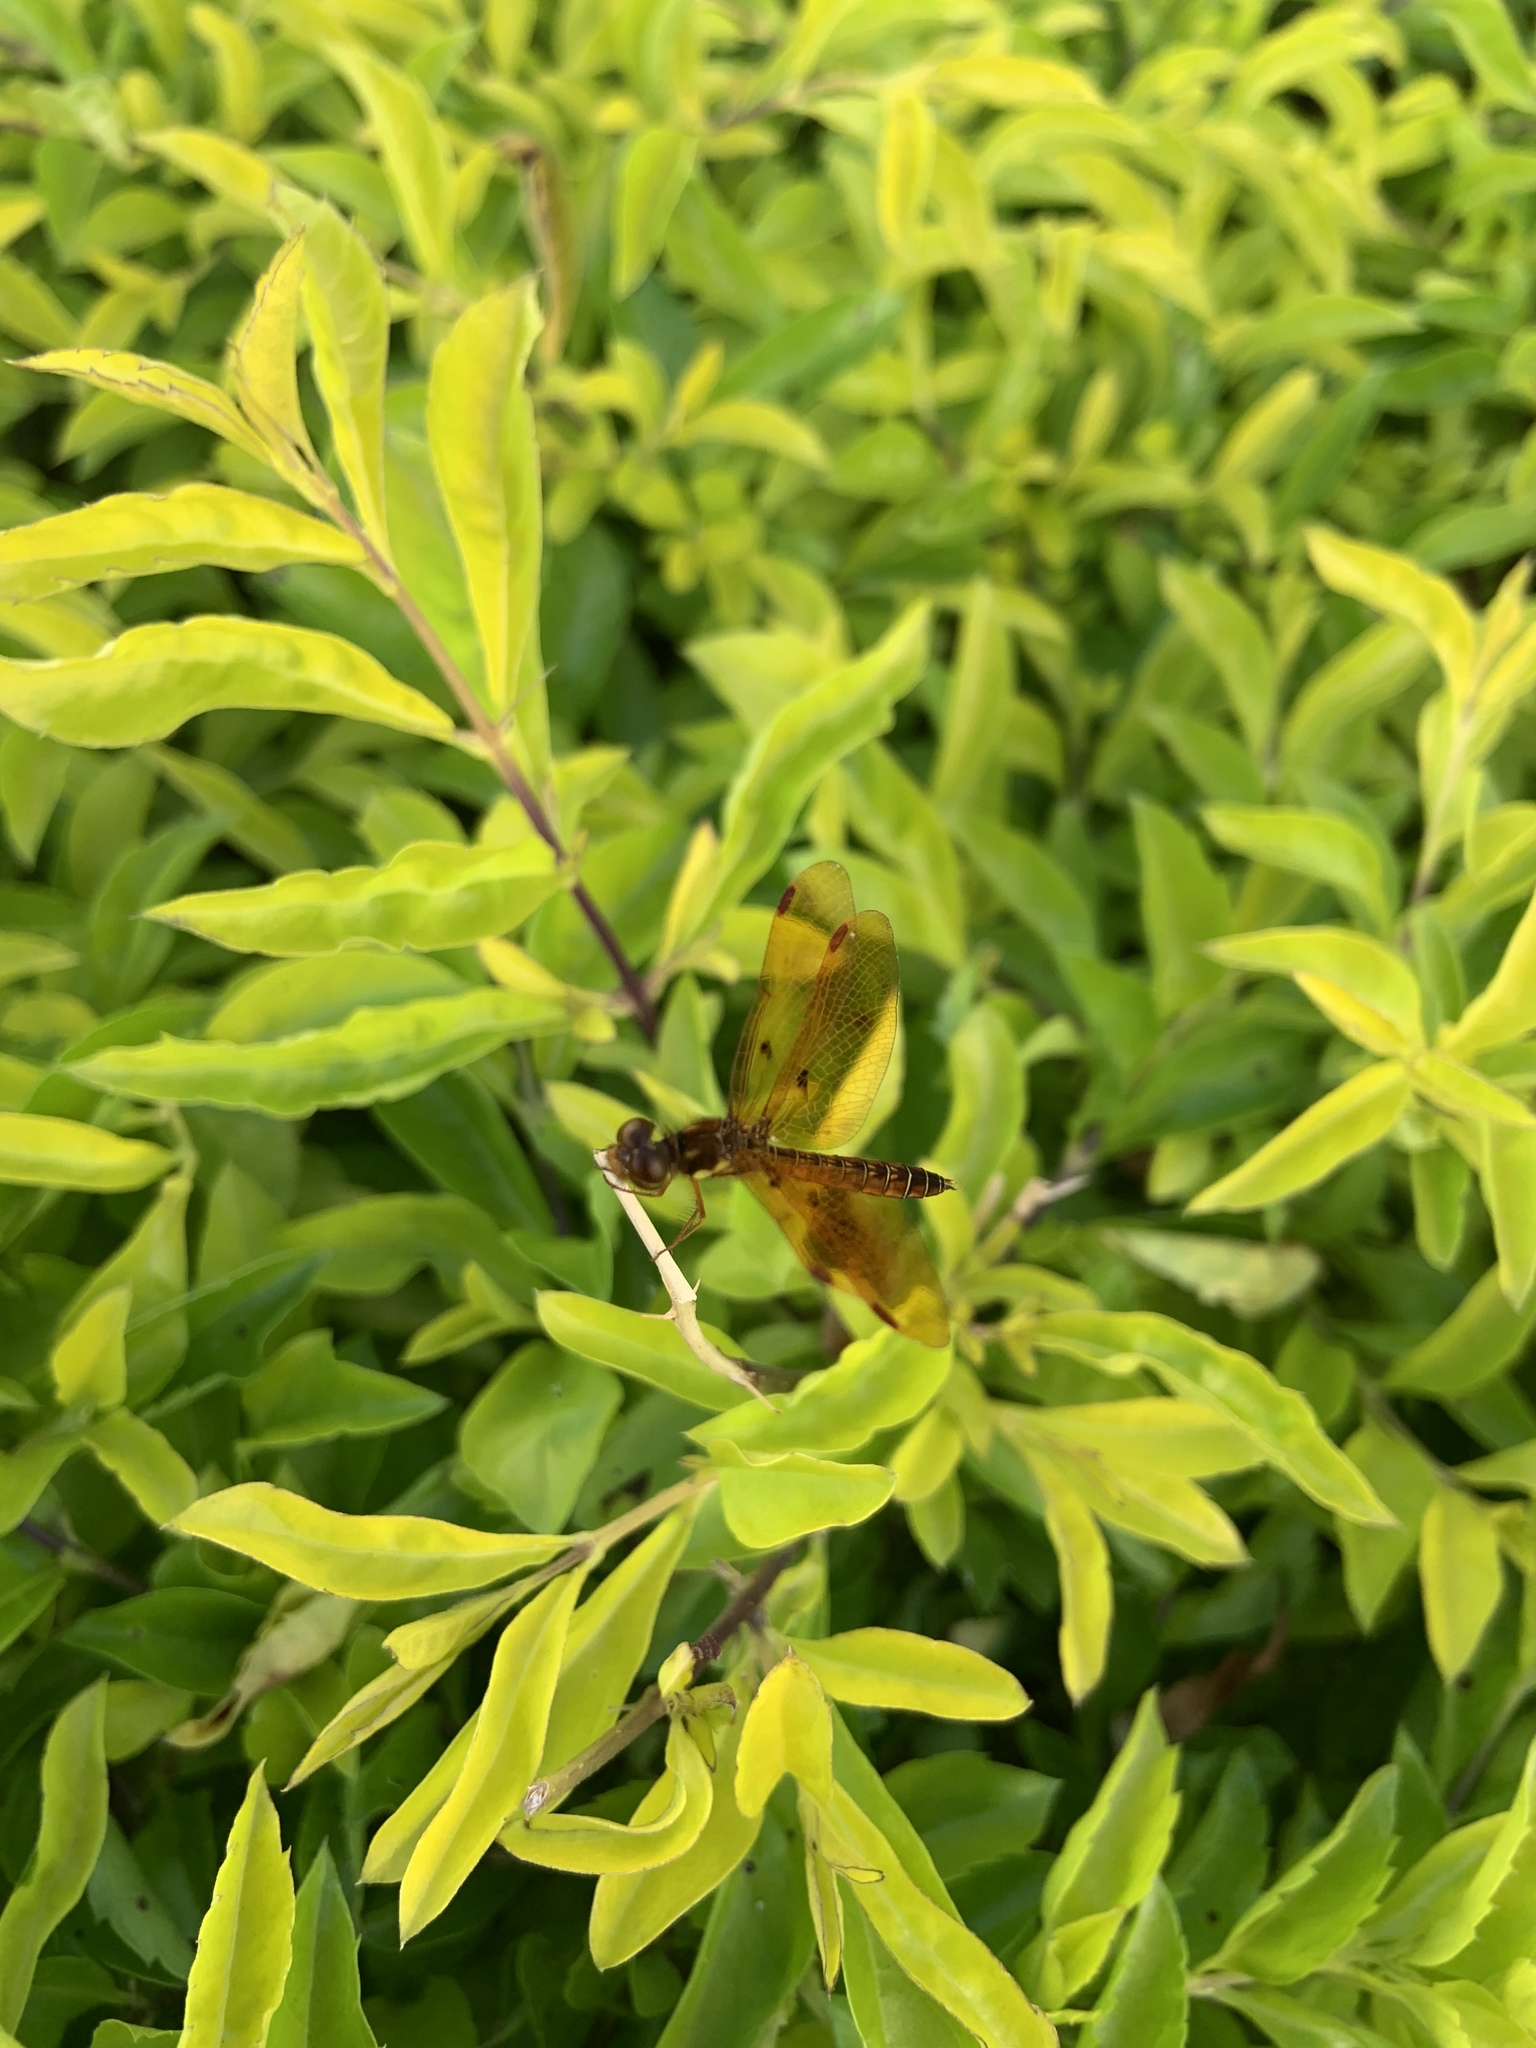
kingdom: Animalia
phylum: Arthropoda
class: Insecta
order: Odonata
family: Libellulidae
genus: Perithemis
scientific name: Perithemis tenera
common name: Eastern amberwing
